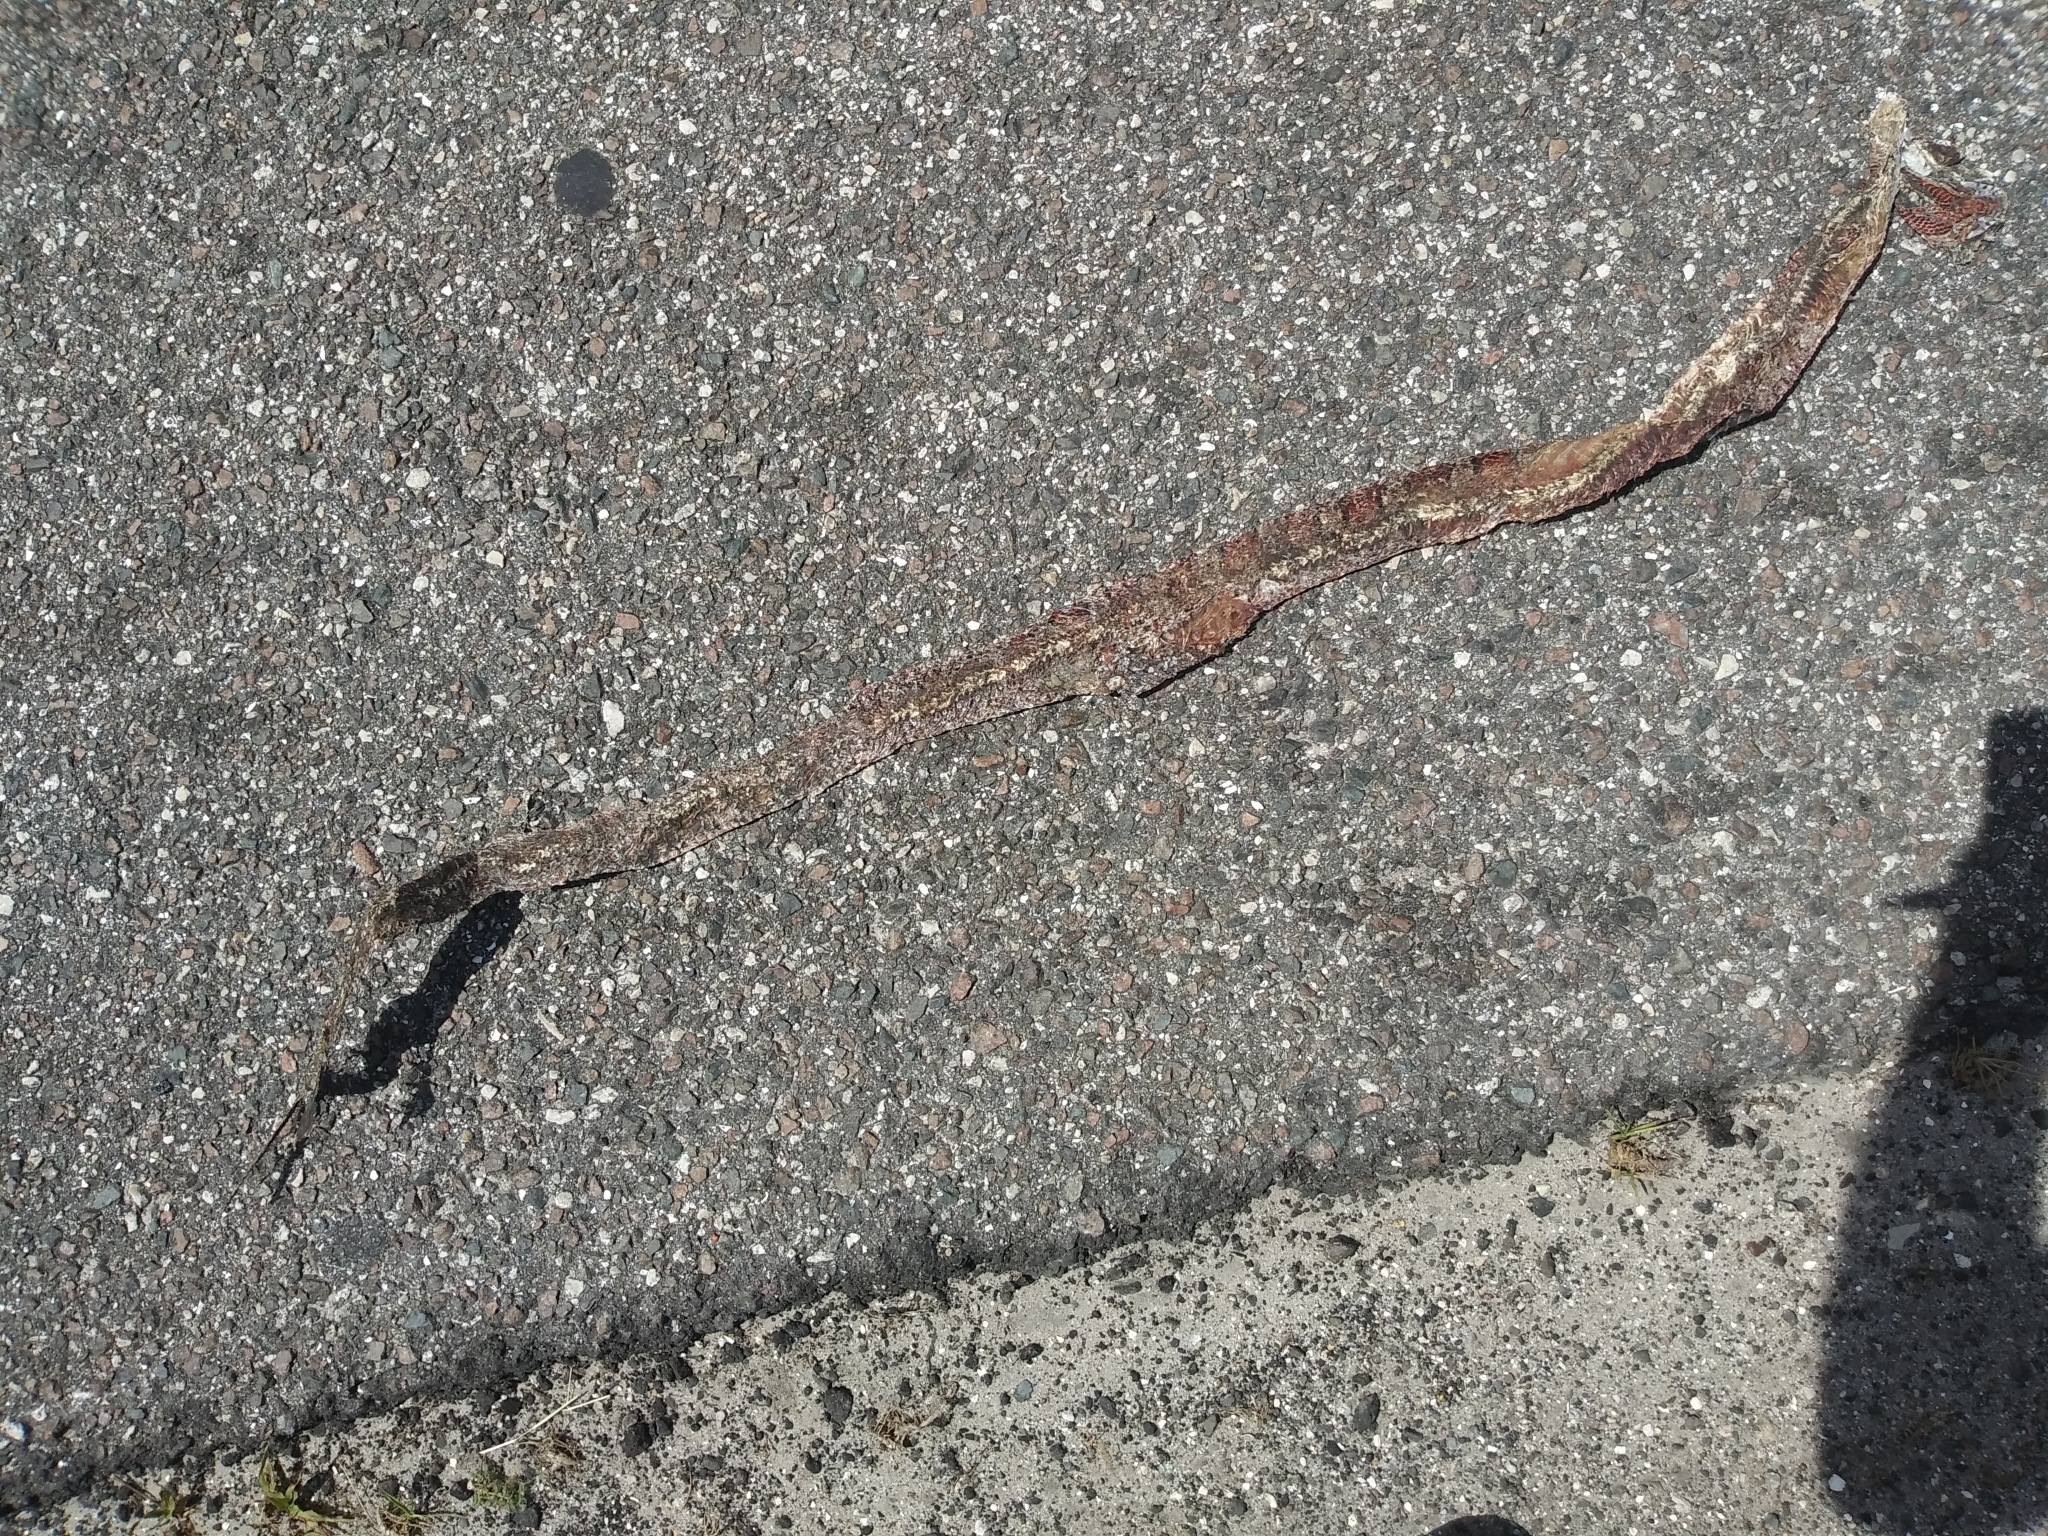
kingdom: Animalia
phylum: Chordata
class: Squamata
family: Colubridae
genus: Pantherophis
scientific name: Pantherophis guttatus
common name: Red cornsnake
